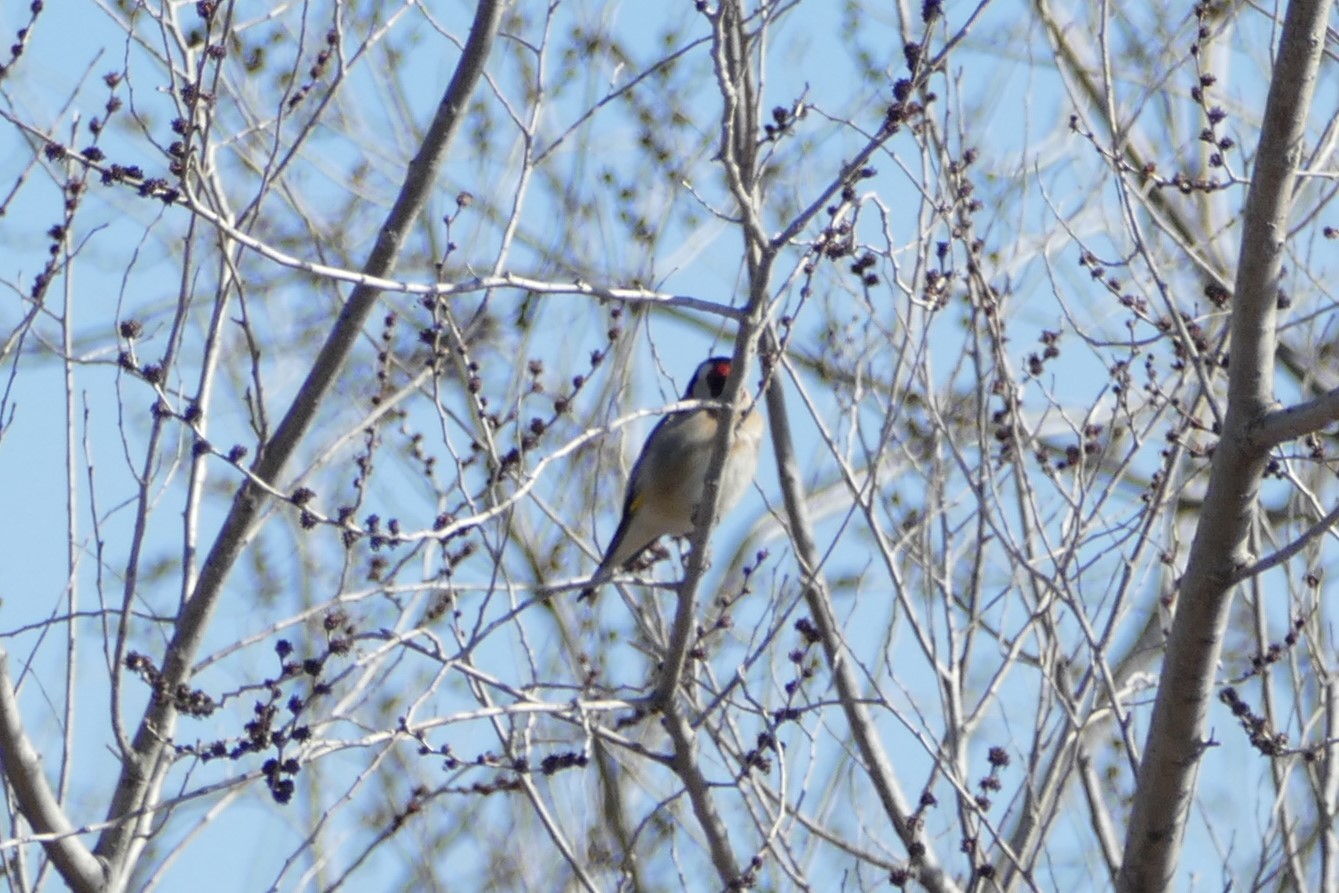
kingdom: Animalia
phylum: Chordata
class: Aves
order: Passeriformes
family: Fringillidae
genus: Carduelis
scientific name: Carduelis carduelis
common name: European goldfinch
